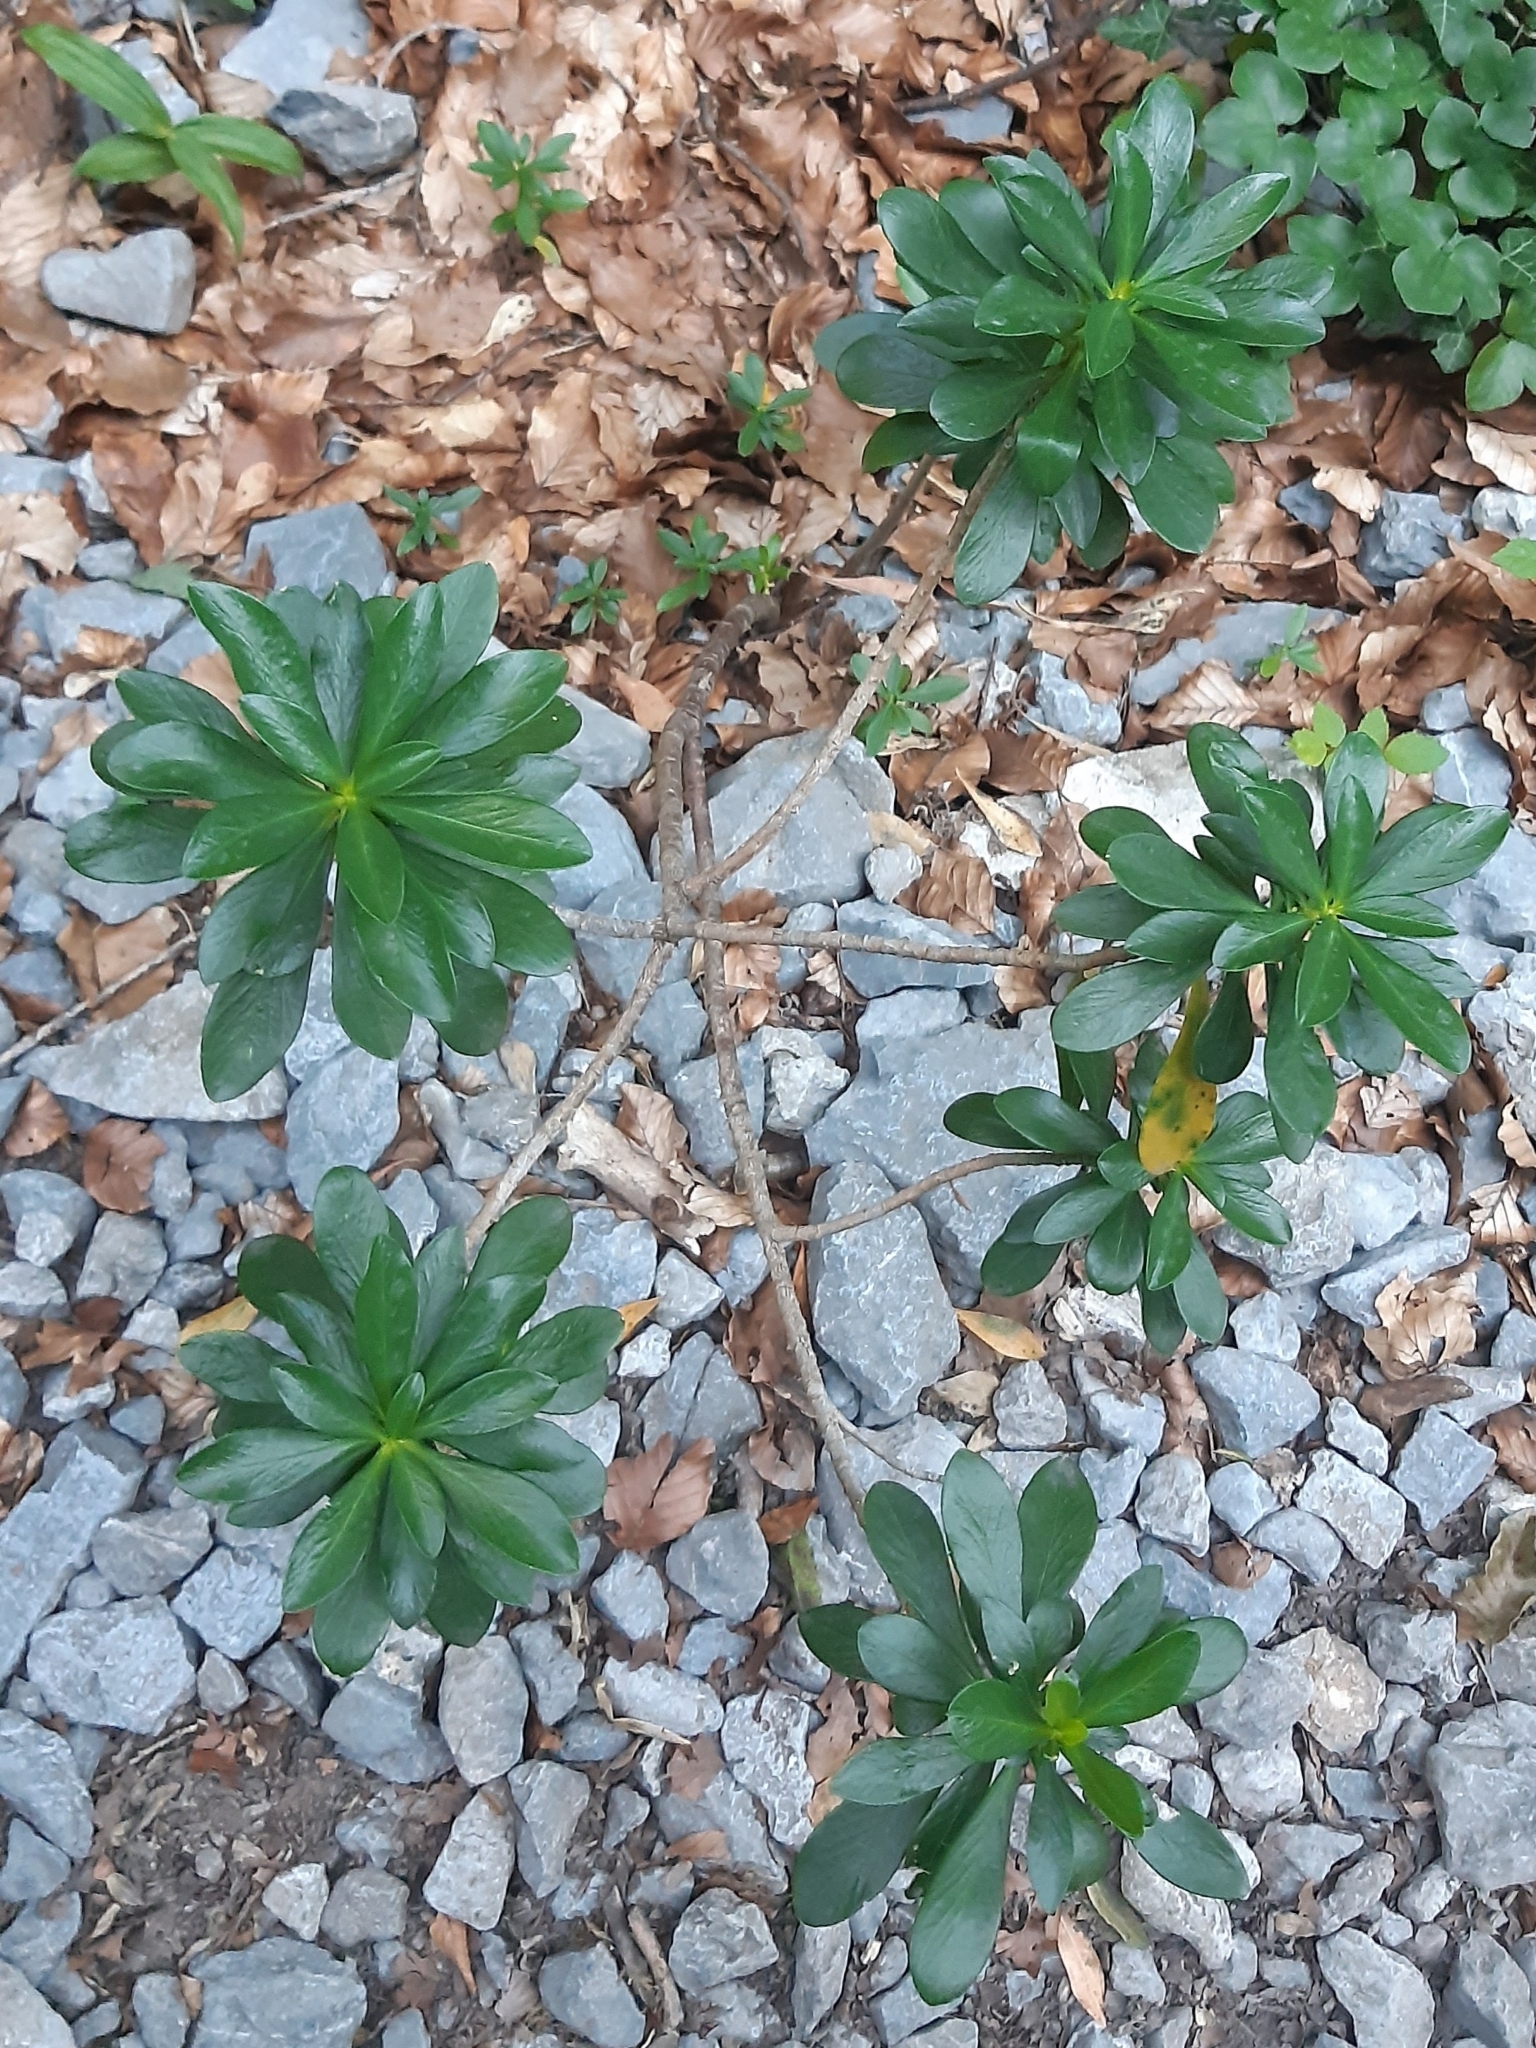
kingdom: Plantae
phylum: Tracheophyta
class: Magnoliopsida
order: Malvales
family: Thymelaeaceae
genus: Daphne
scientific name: Daphne laureola
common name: Spurge-laurel
